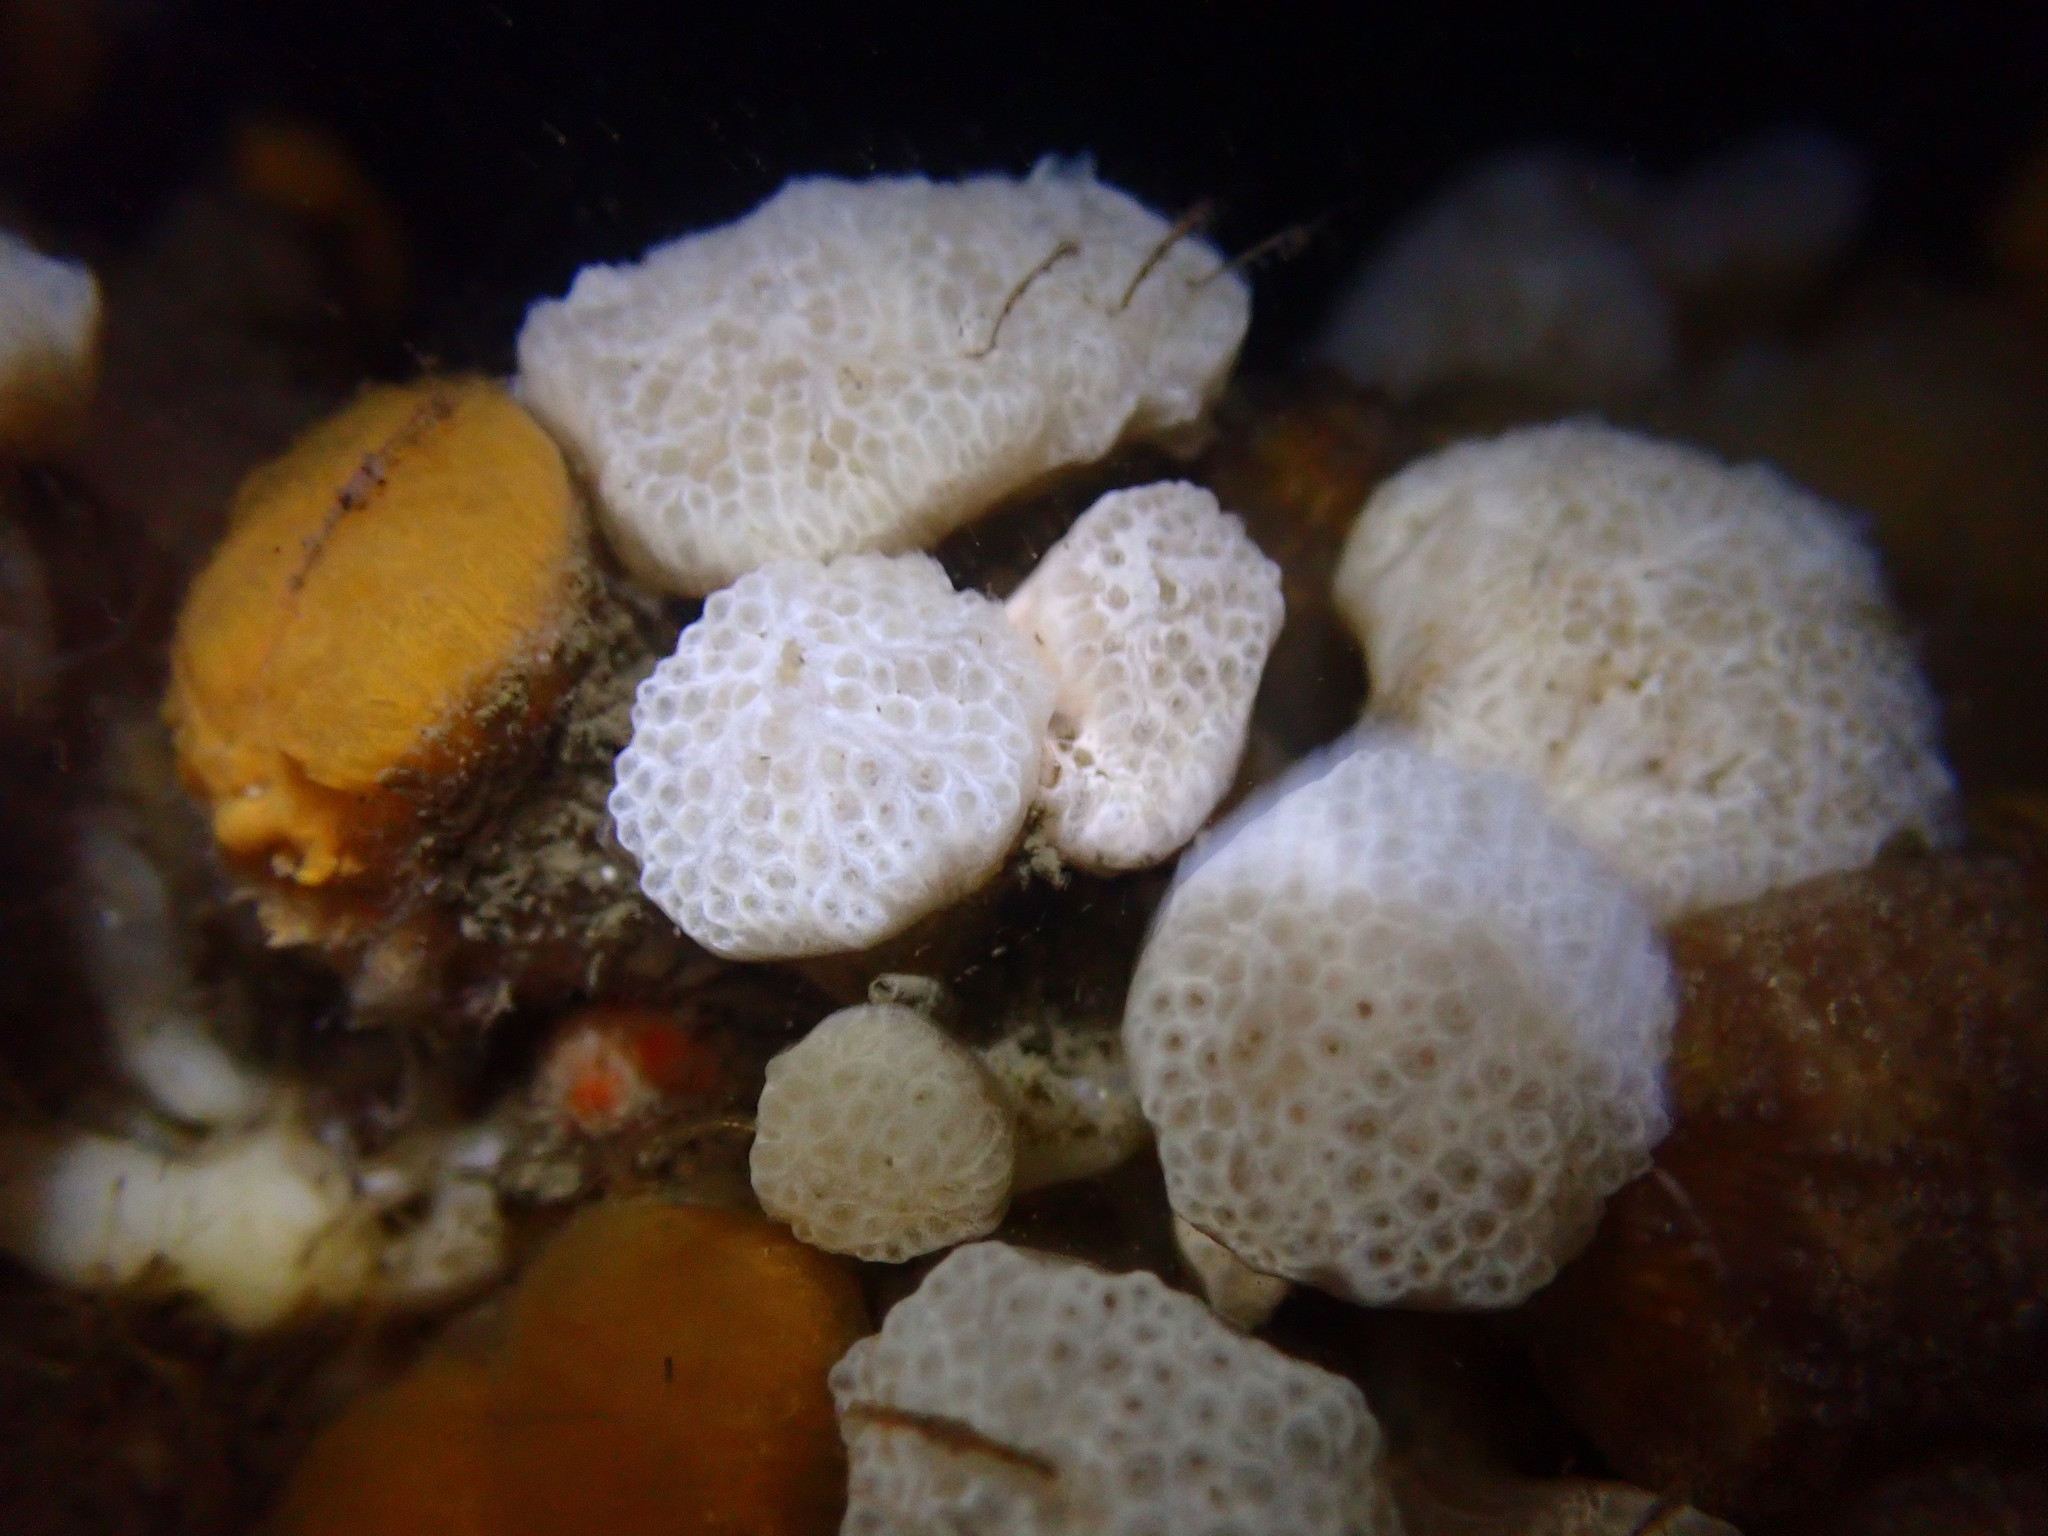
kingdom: Animalia
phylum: Chordata
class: Ascidiacea
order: Aplousobranchia
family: Holozoidae
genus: Distaplia
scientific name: Distaplia occidentalis
